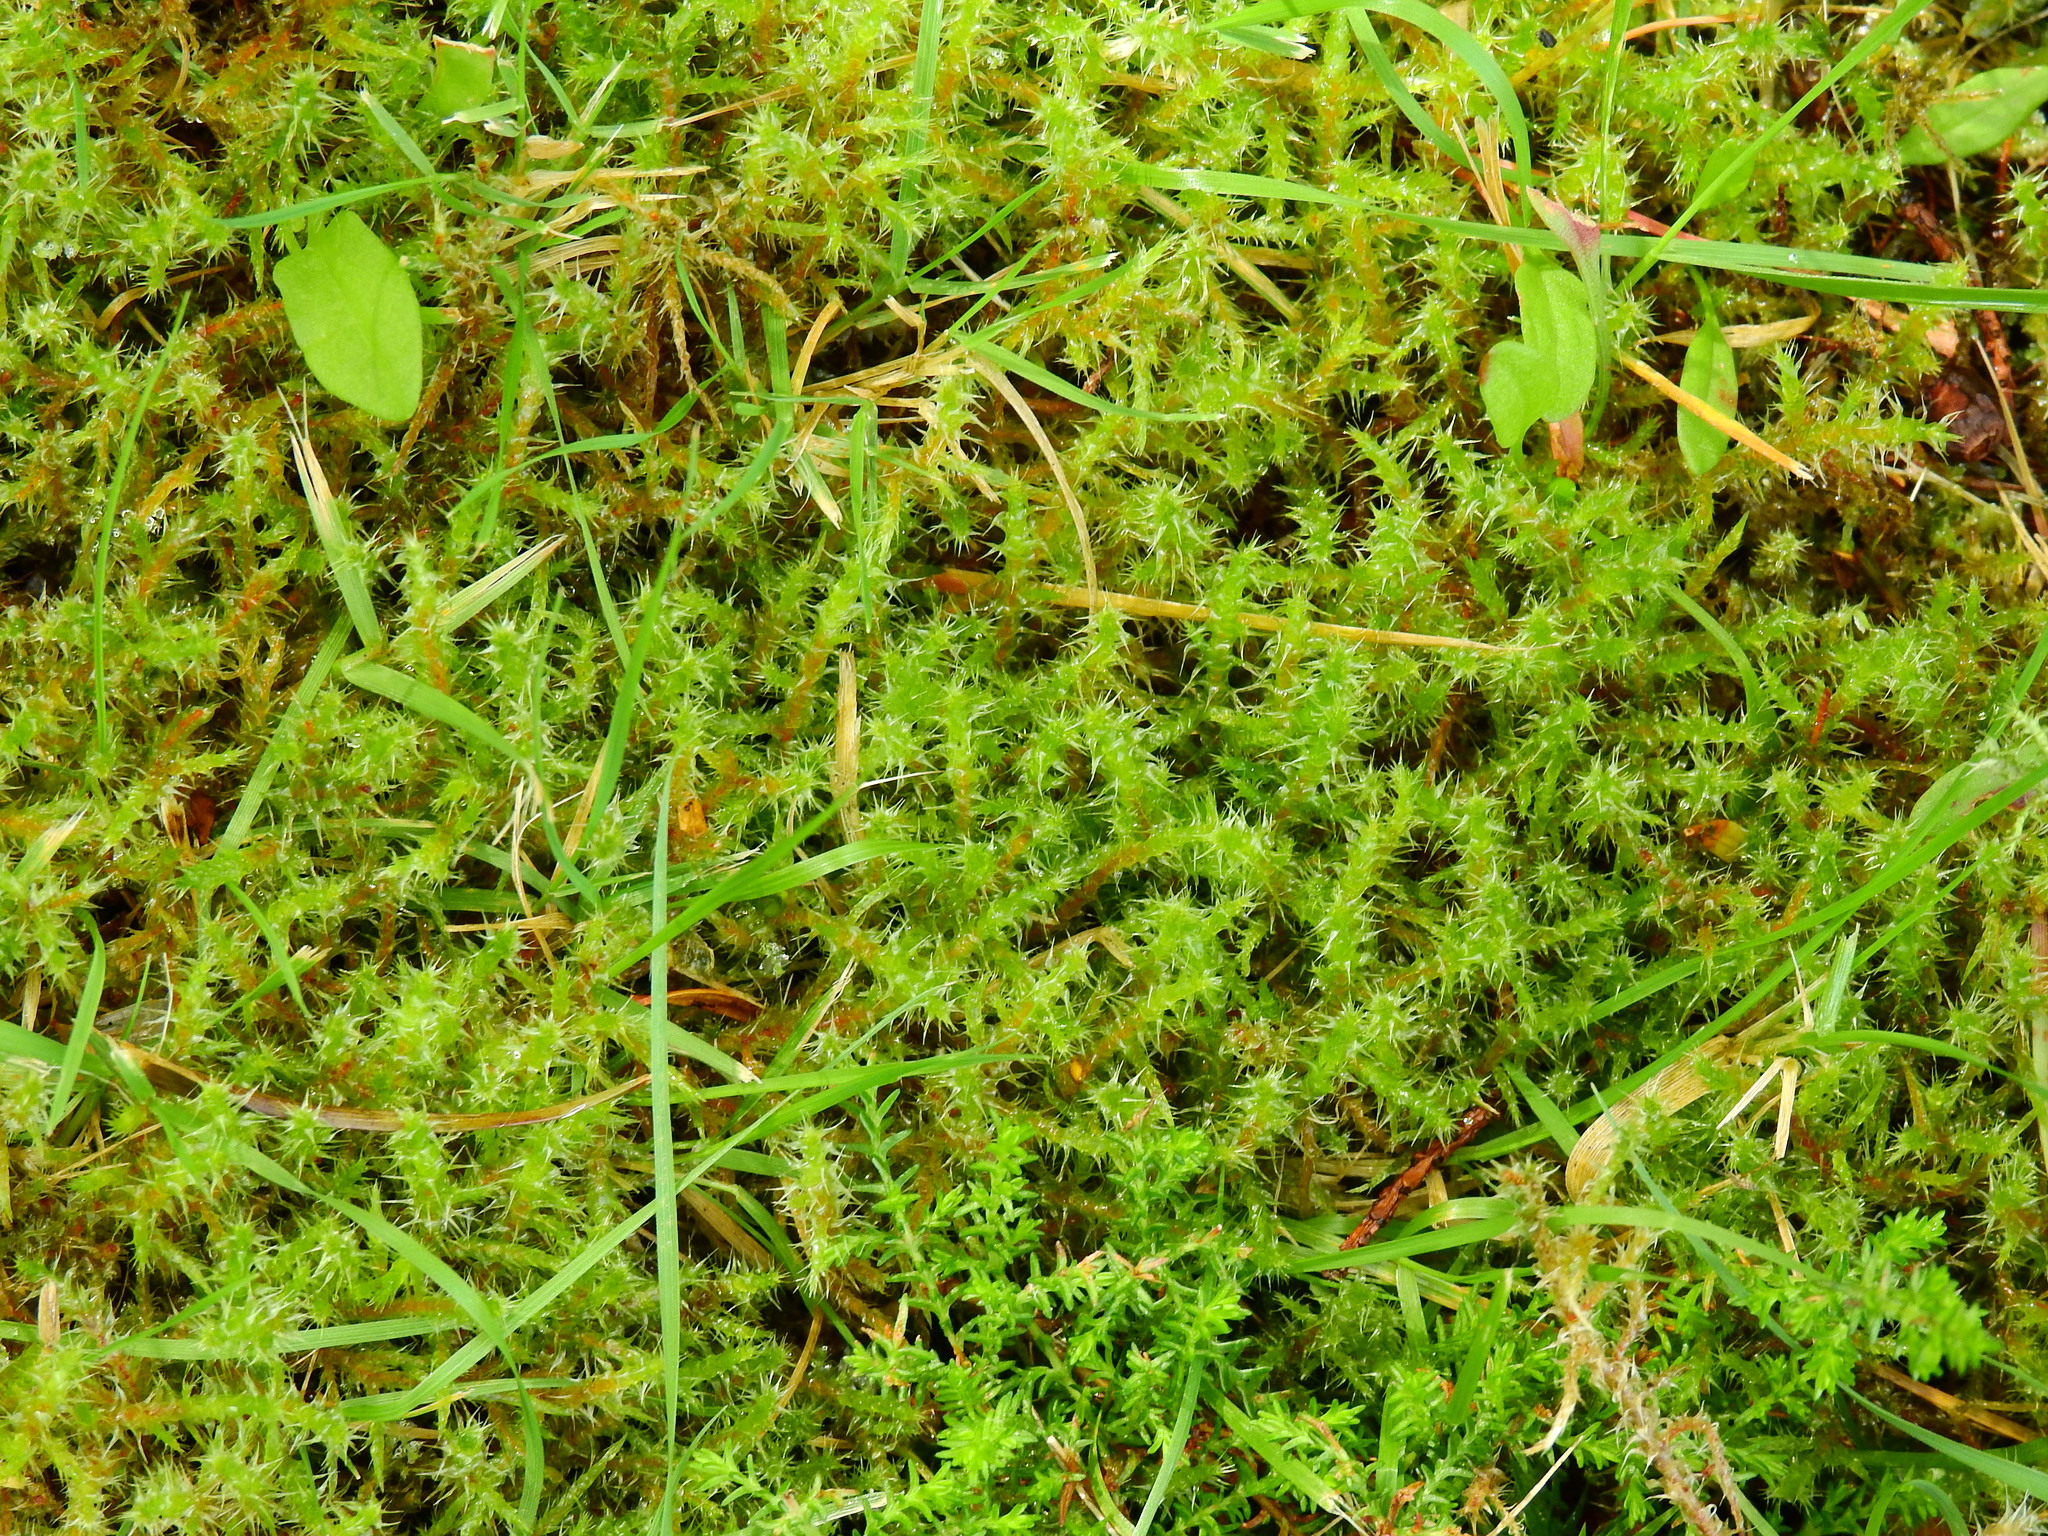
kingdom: Plantae
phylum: Bryophyta
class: Bryopsida
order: Hypnales
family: Hylocomiaceae
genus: Rhytidiadelphus
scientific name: Rhytidiadelphus squarrosus
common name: Springy turf-moss
